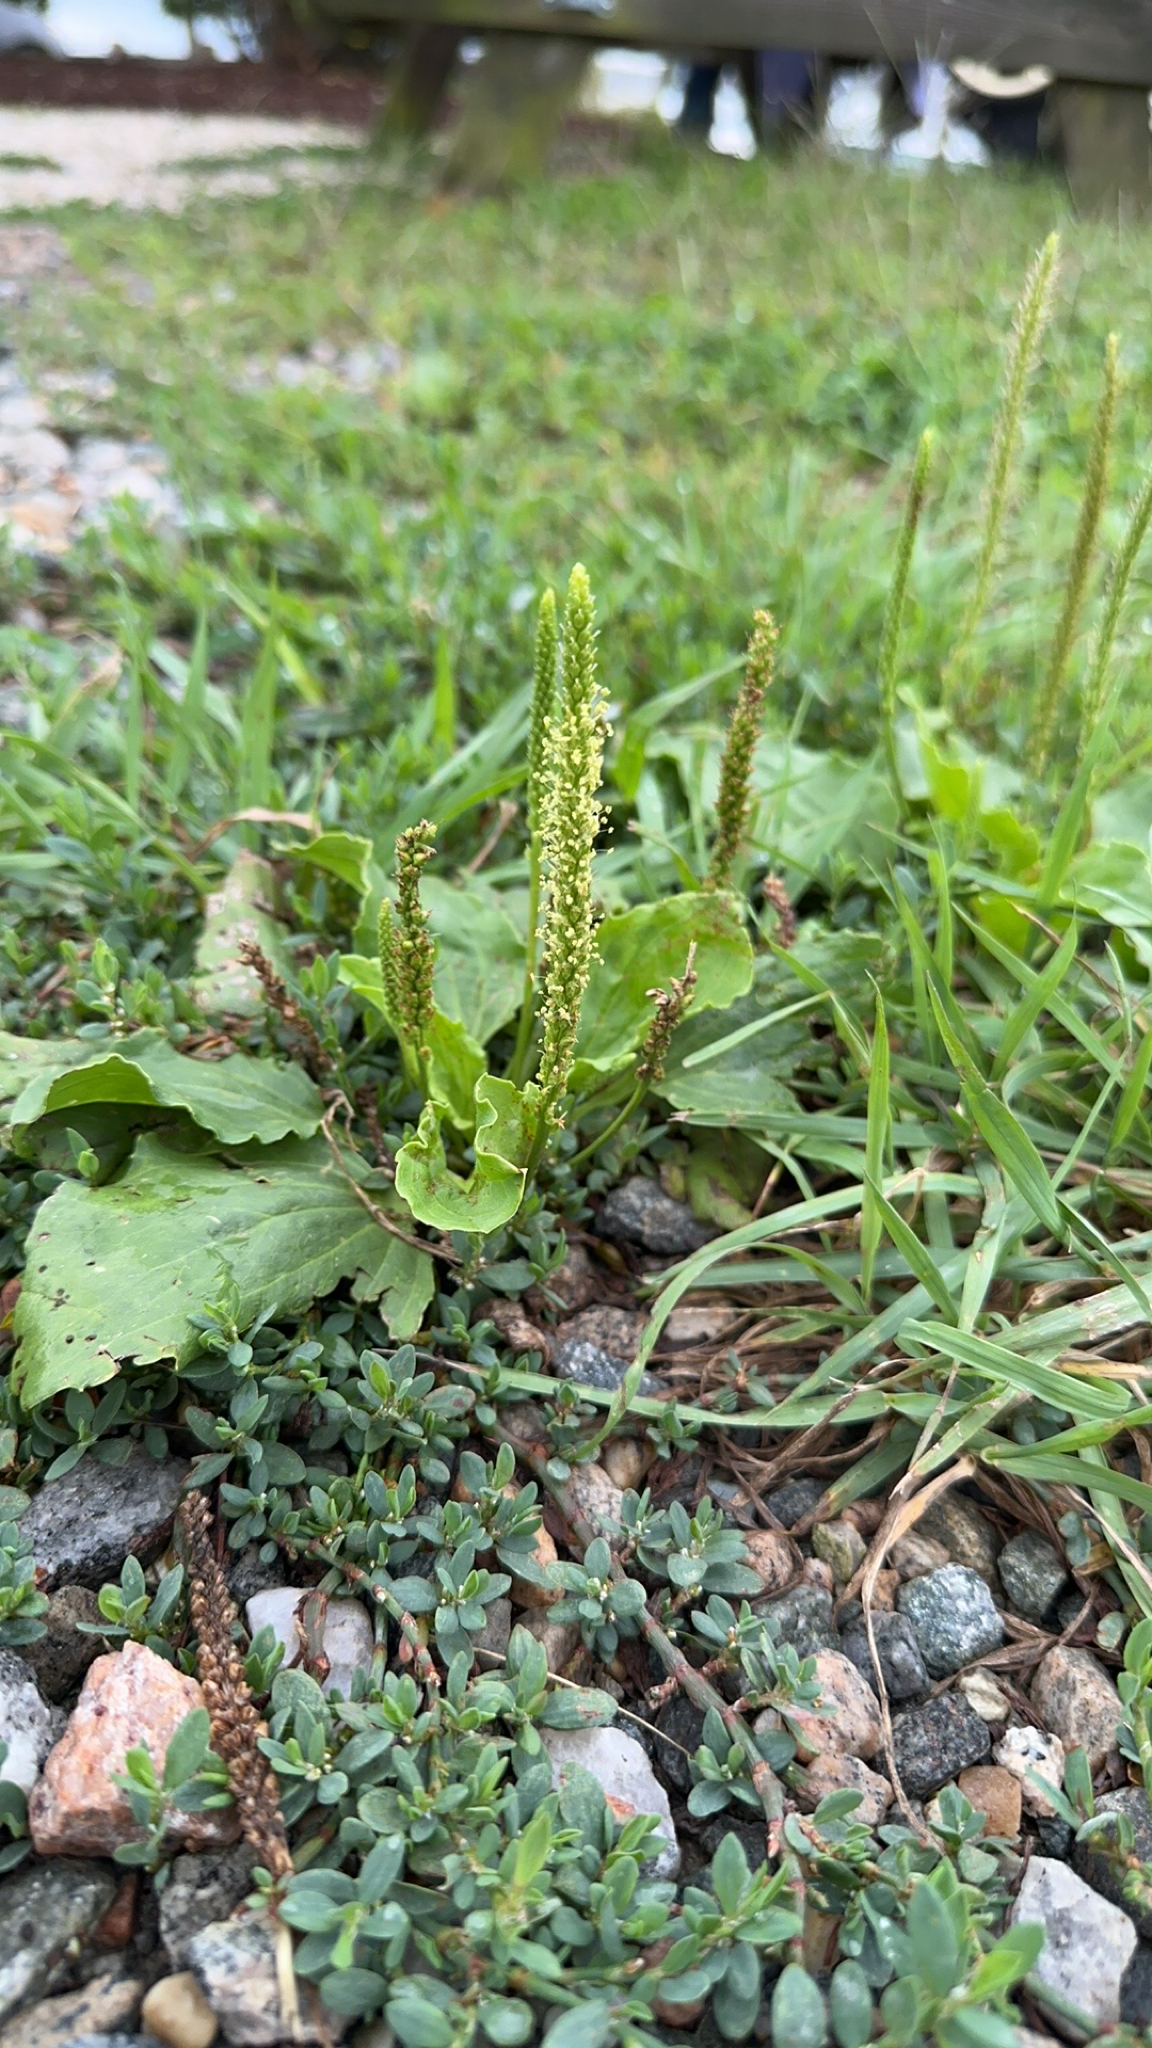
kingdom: Plantae
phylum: Tracheophyta
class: Magnoliopsida
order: Lamiales
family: Plantaginaceae
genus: Plantago
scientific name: Plantago major
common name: Common plantain
